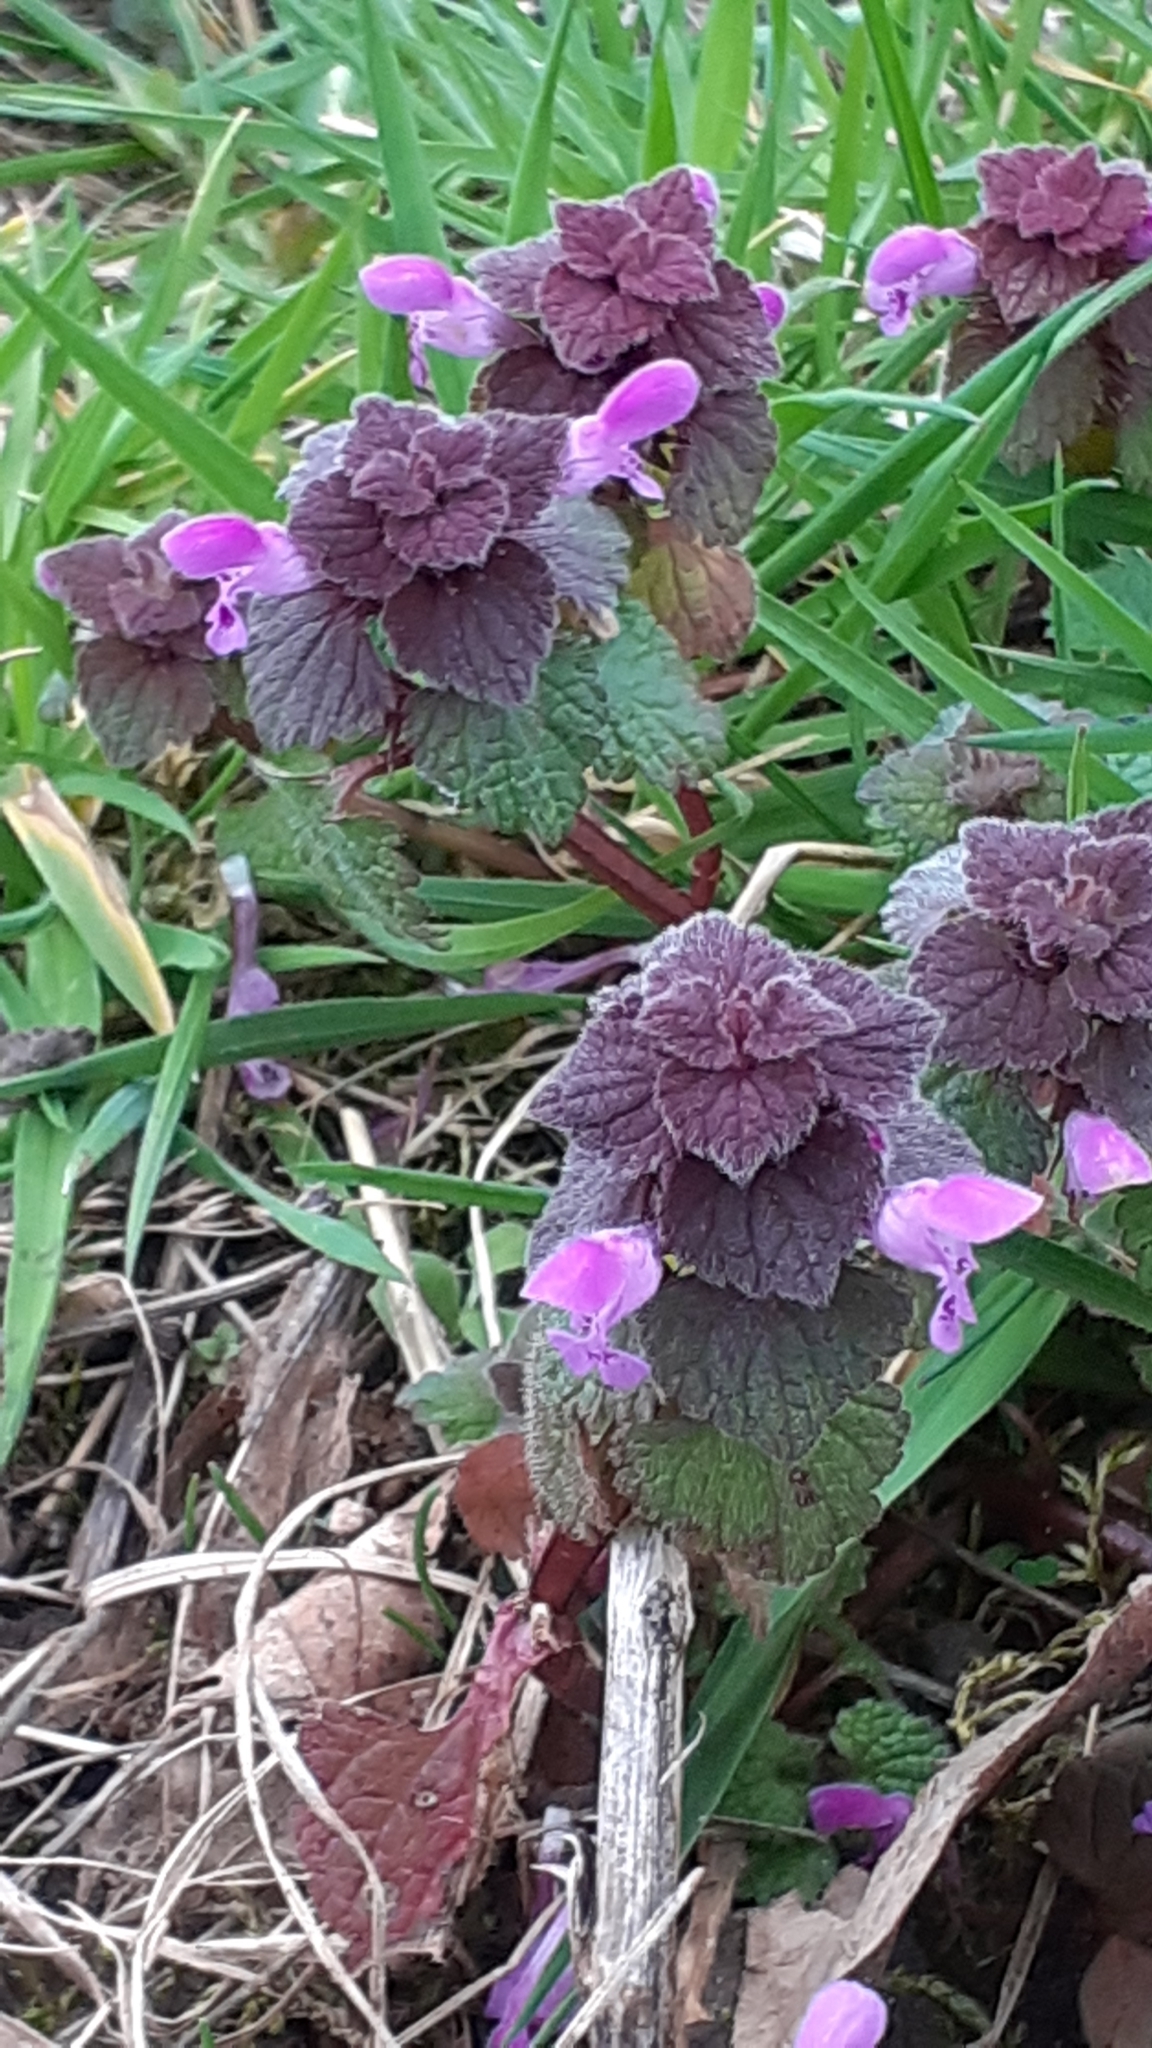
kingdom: Plantae
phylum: Tracheophyta
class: Magnoliopsida
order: Lamiales
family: Lamiaceae
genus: Lamium
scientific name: Lamium purpureum
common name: Red dead-nettle
